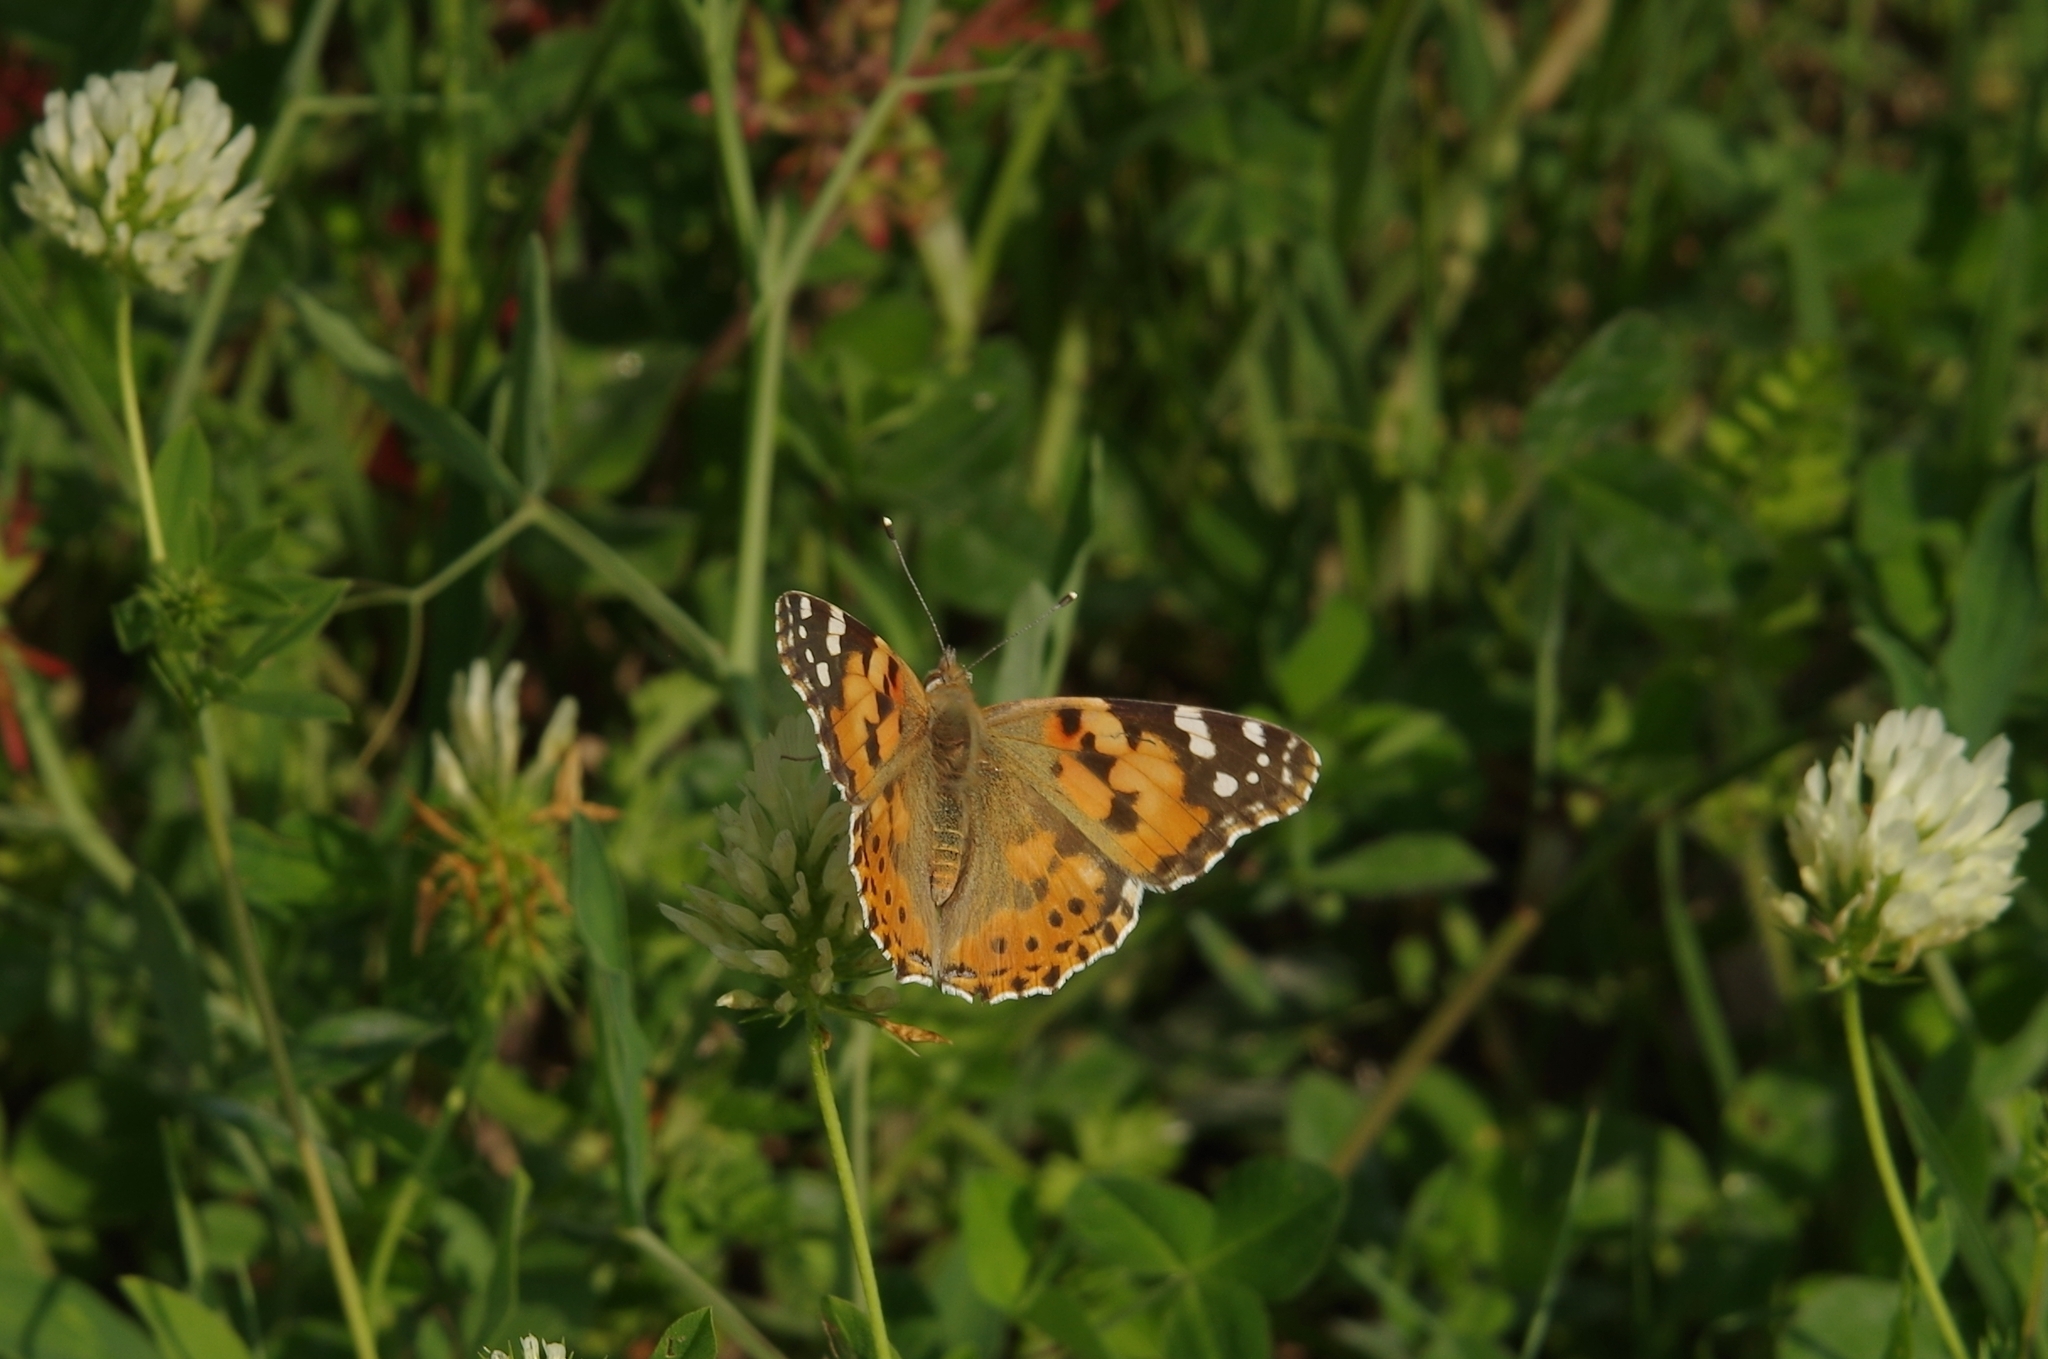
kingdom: Animalia
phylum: Arthropoda
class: Insecta
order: Lepidoptera
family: Nymphalidae
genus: Vanessa
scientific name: Vanessa cardui
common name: Painted lady
